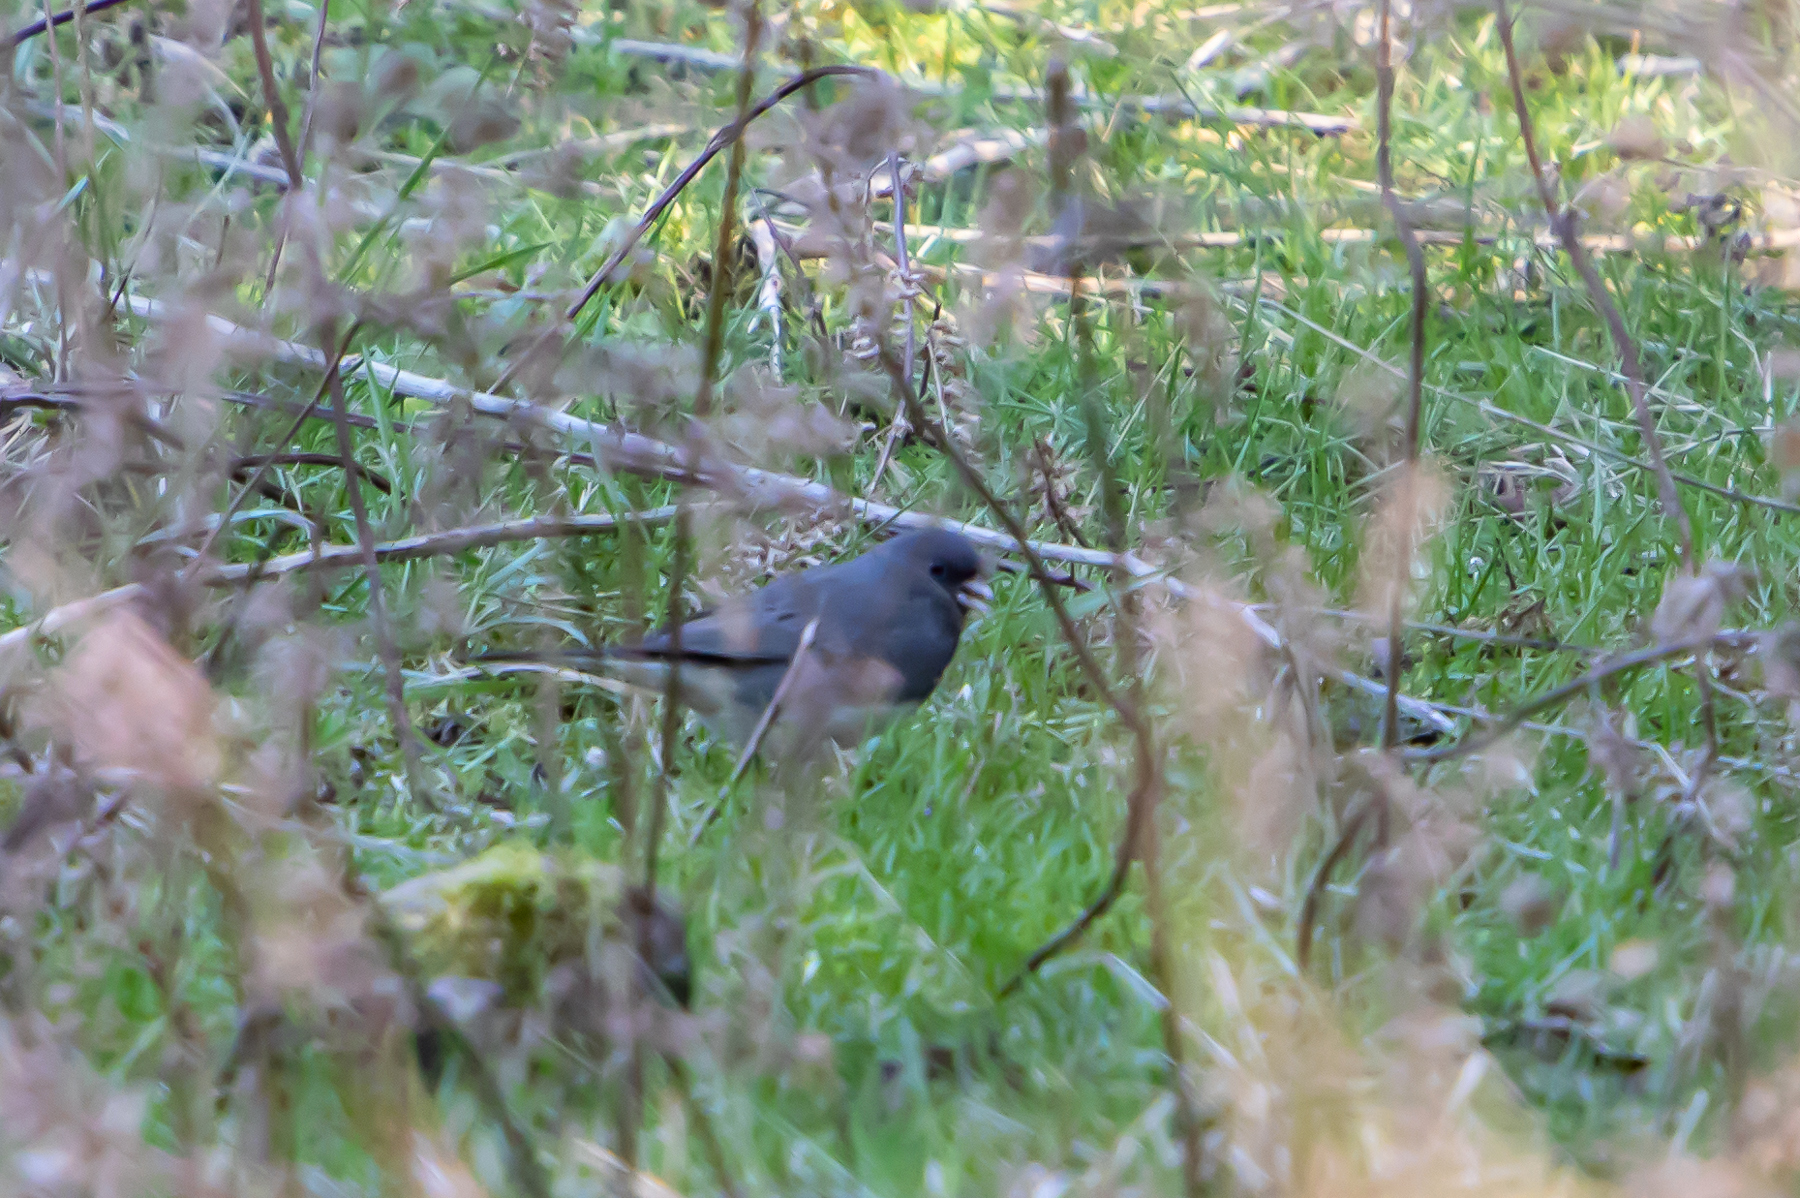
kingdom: Animalia
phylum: Chordata
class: Aves
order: Passeriformes
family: Passerellidae
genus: Junco
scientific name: Junco hyemalis
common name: Dark-eyed junco
